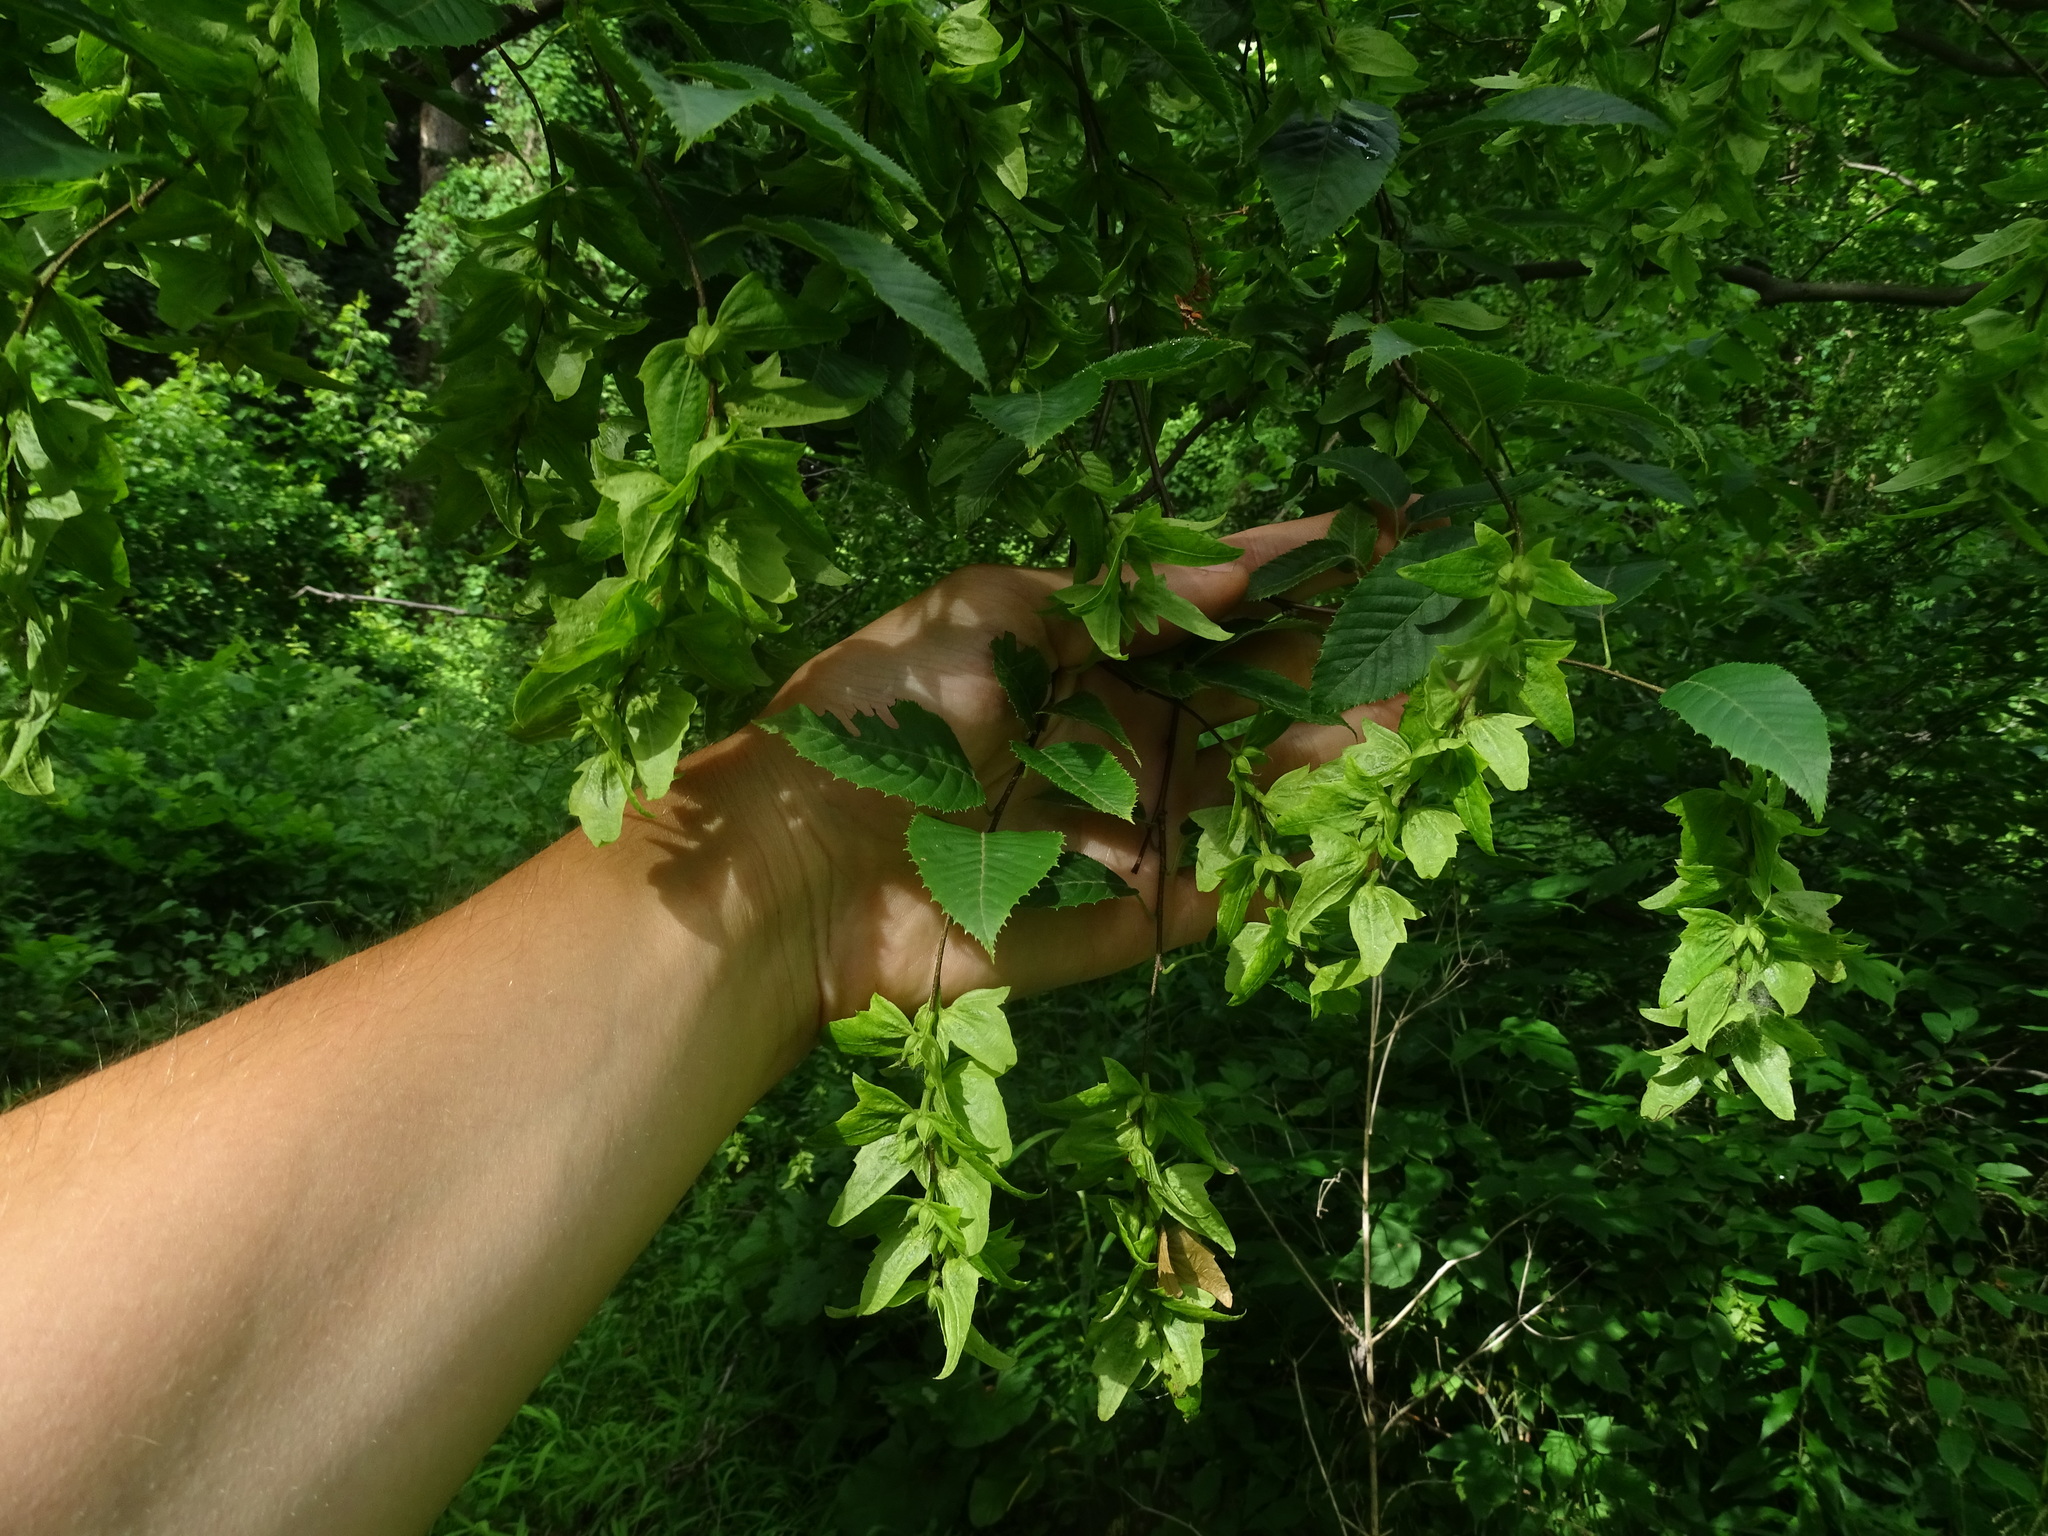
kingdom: Plantae
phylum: Tracheophyta
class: Magnoliopsida
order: Fagales
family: Betulaceae
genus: Carpinus
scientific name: Carpinus caroliniana
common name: American hornbeam
